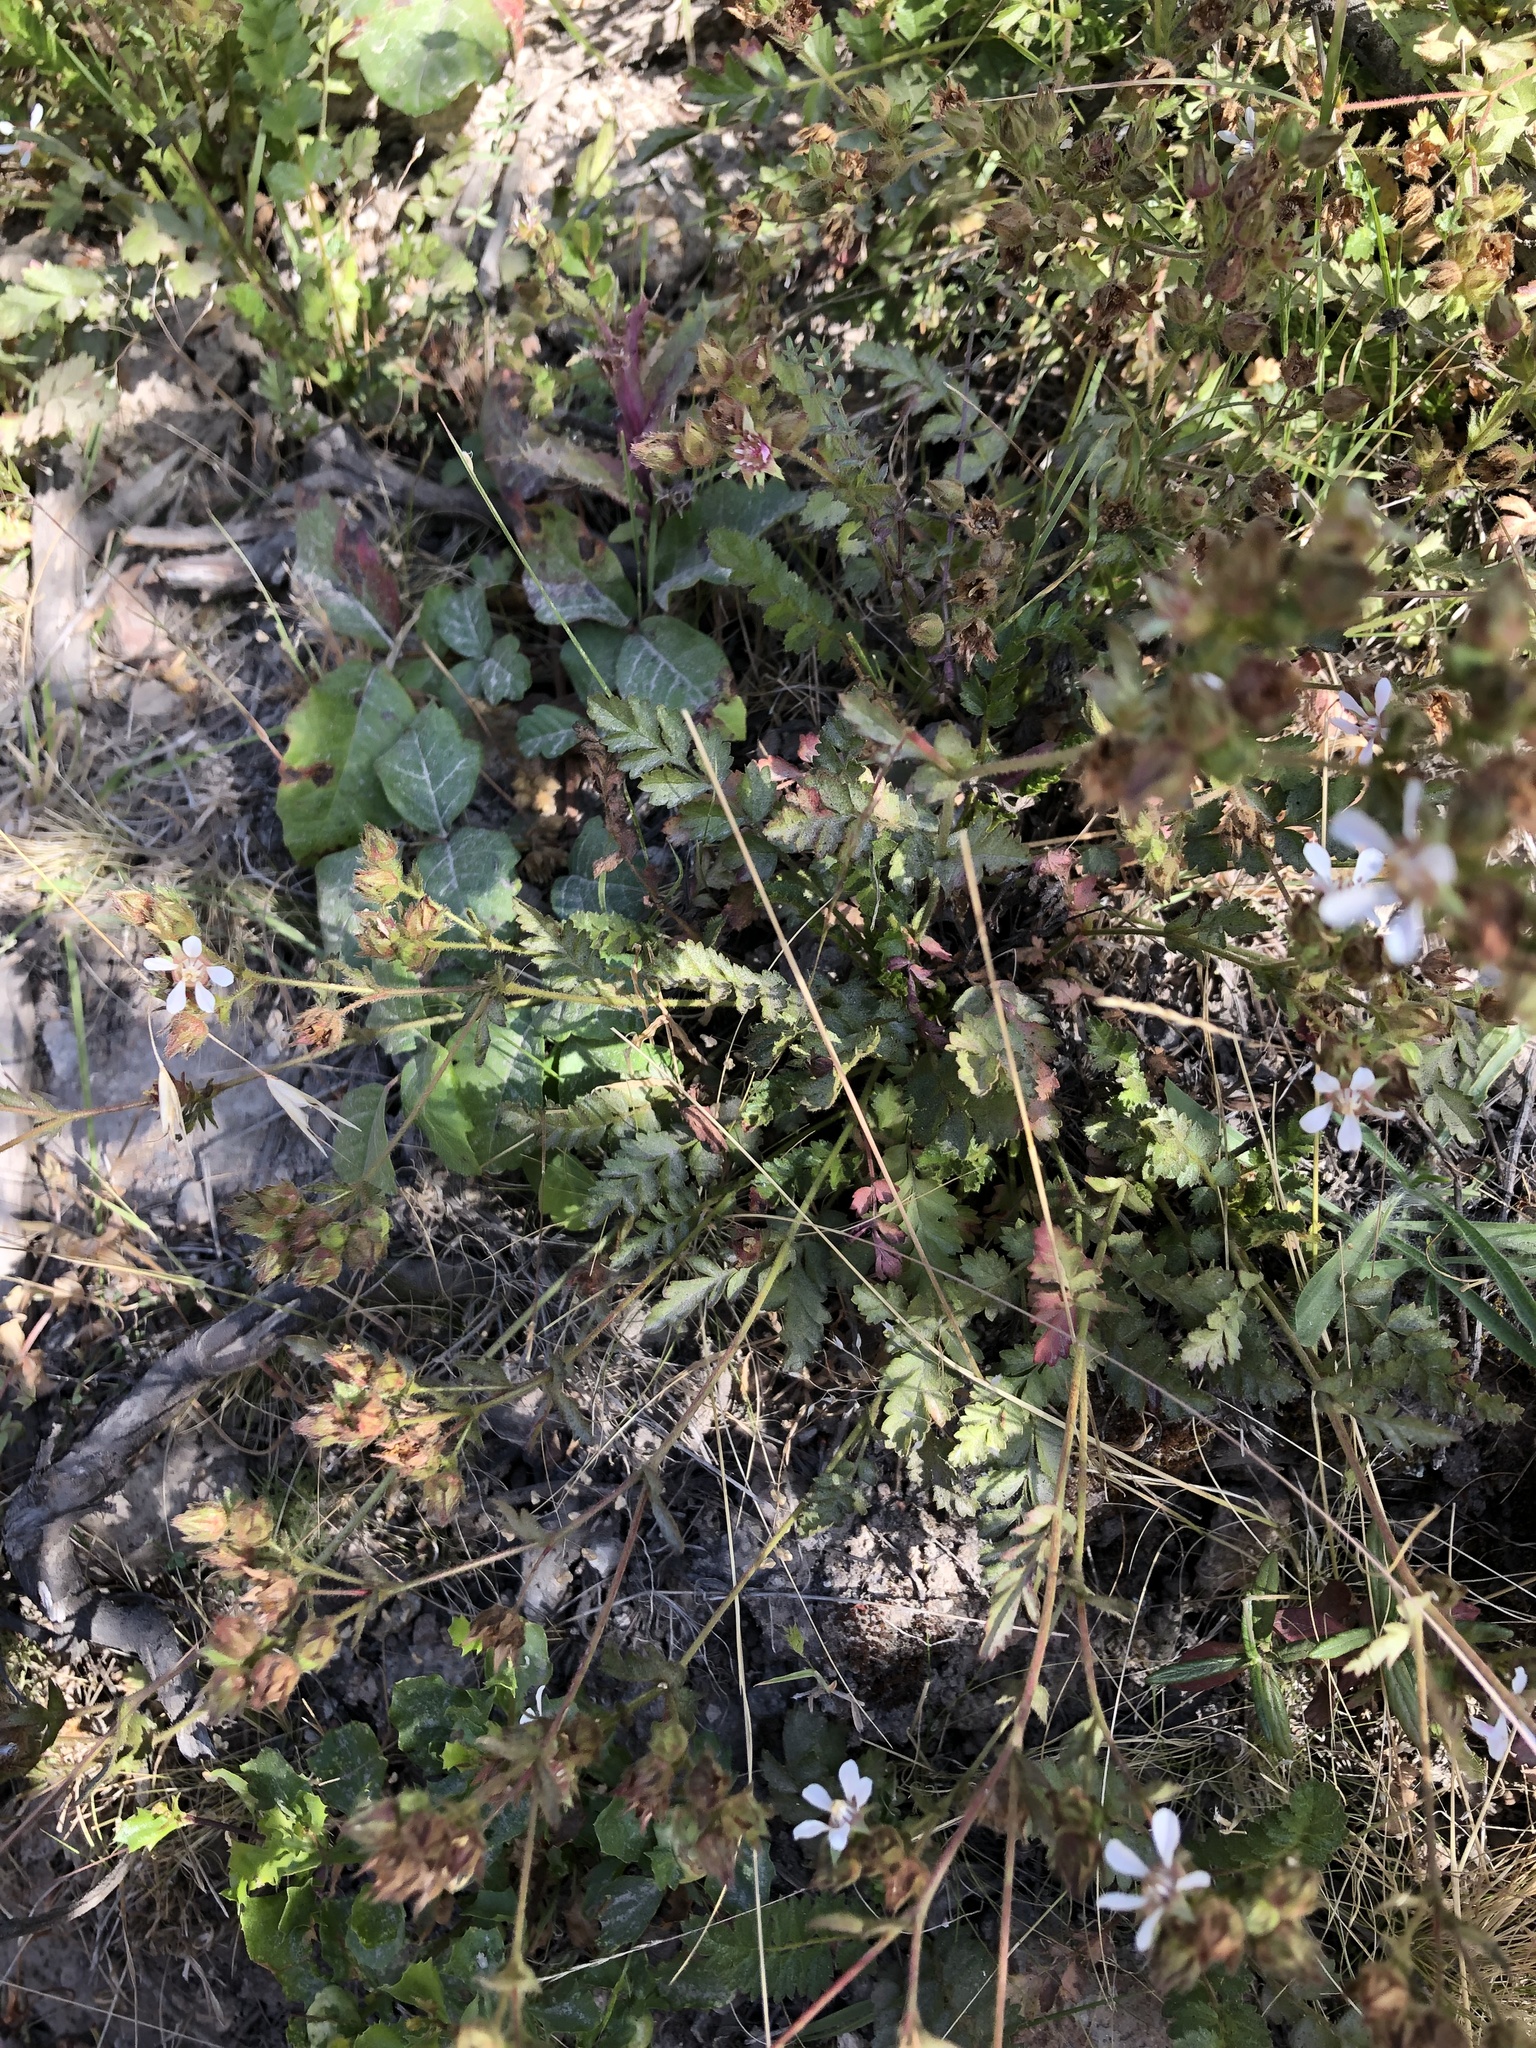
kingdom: Plantae
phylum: Tracheophyta
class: Magnoliopsida
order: Rosales
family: Rosaceae
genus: Potentilla
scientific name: Potentilla
